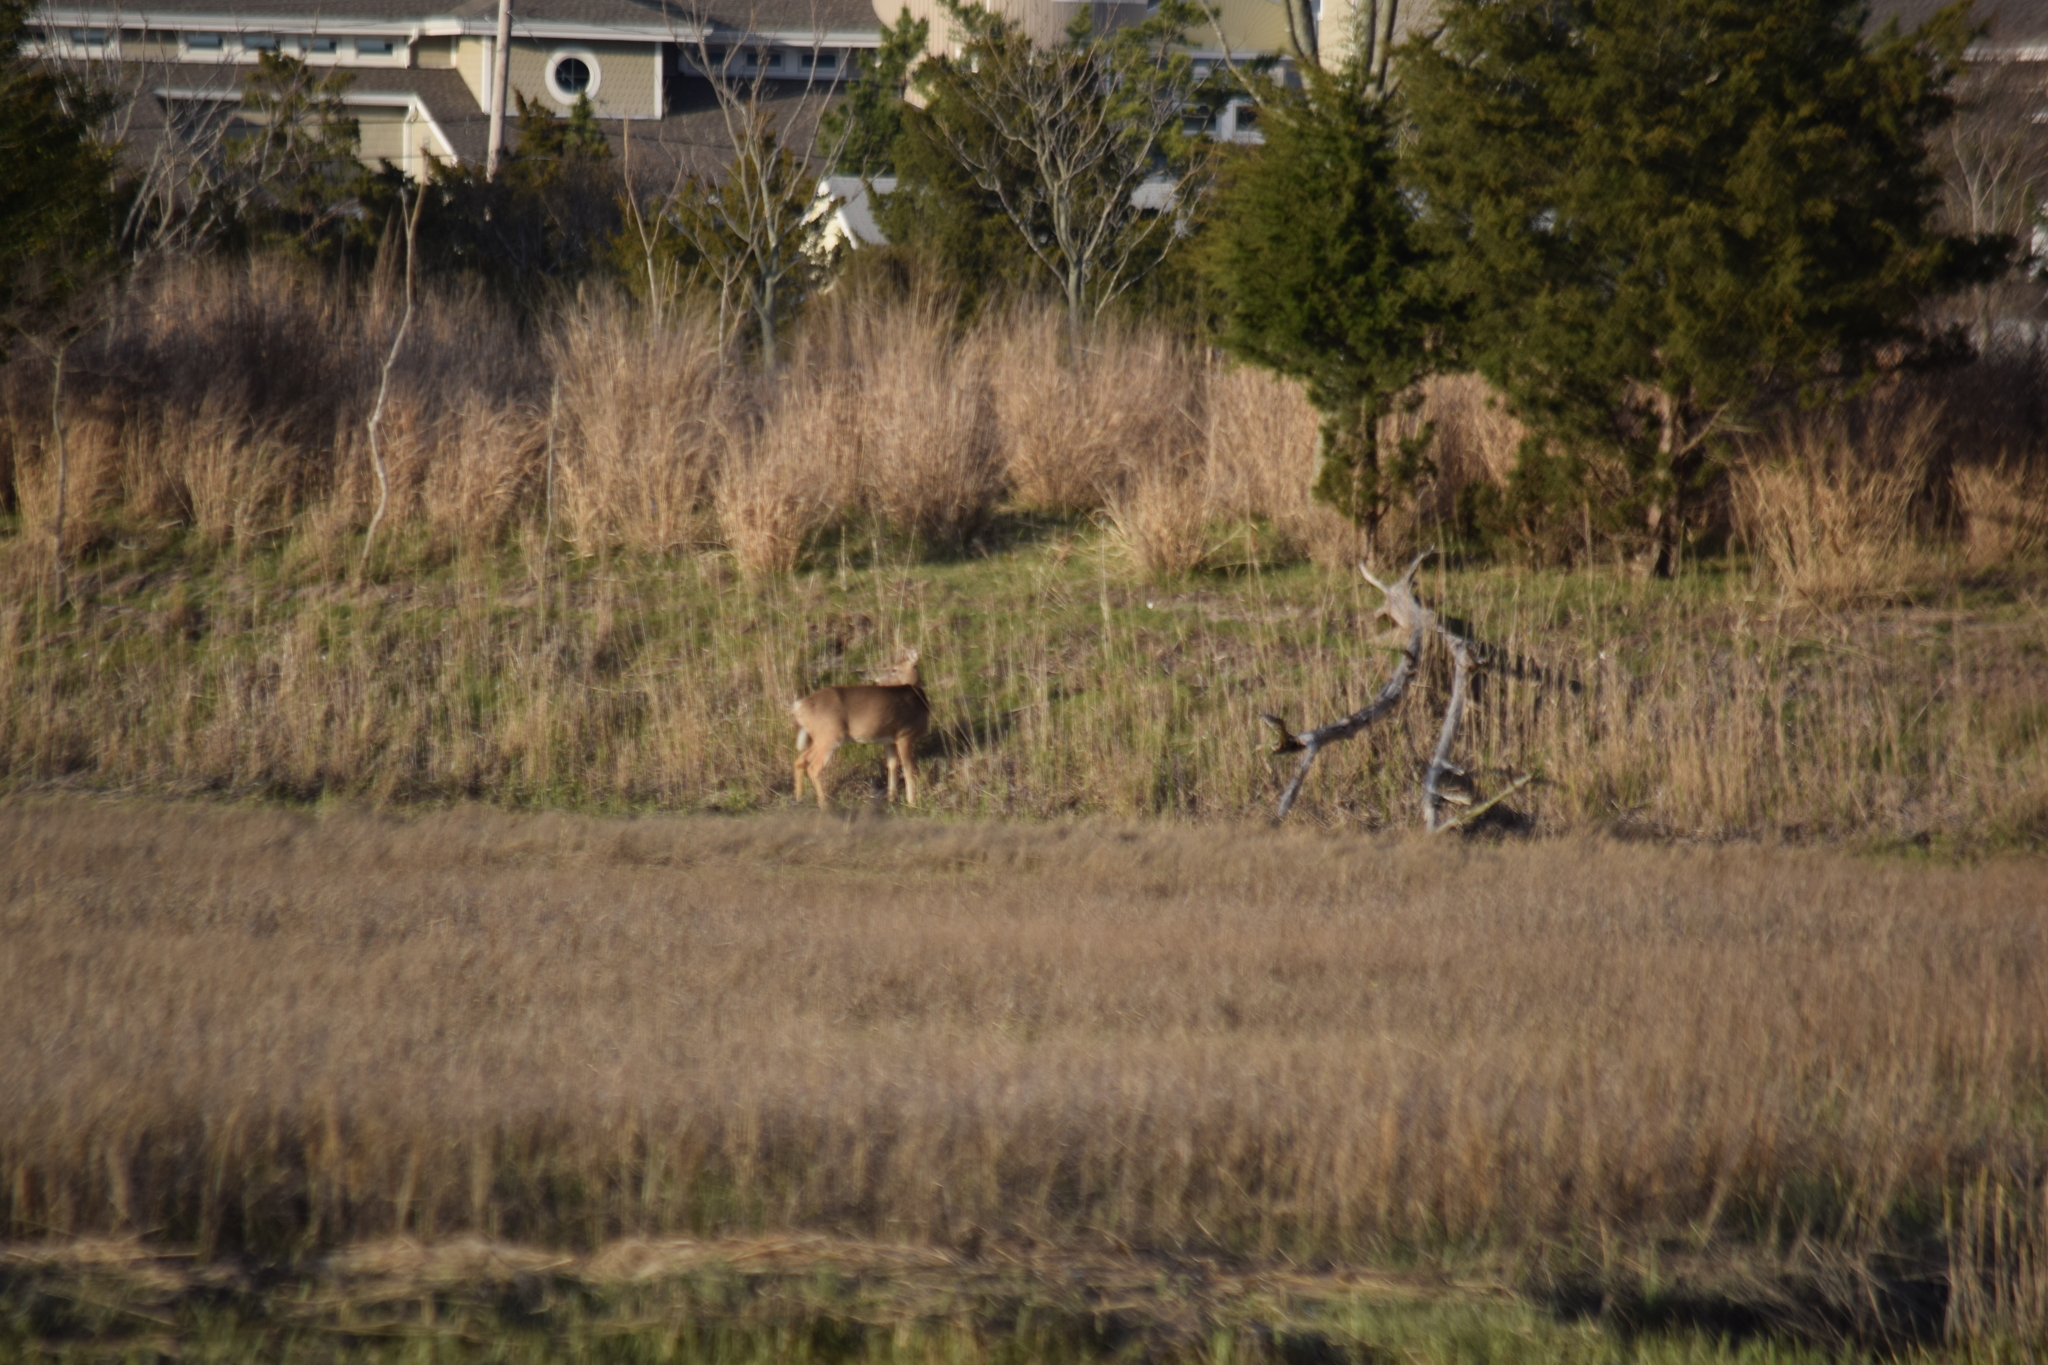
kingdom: Animalia
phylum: Chordata
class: Mammalia
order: Artiodactyla
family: Cervidae
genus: Odocoileus
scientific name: Odocoileus virginianus
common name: White-tailed deer
